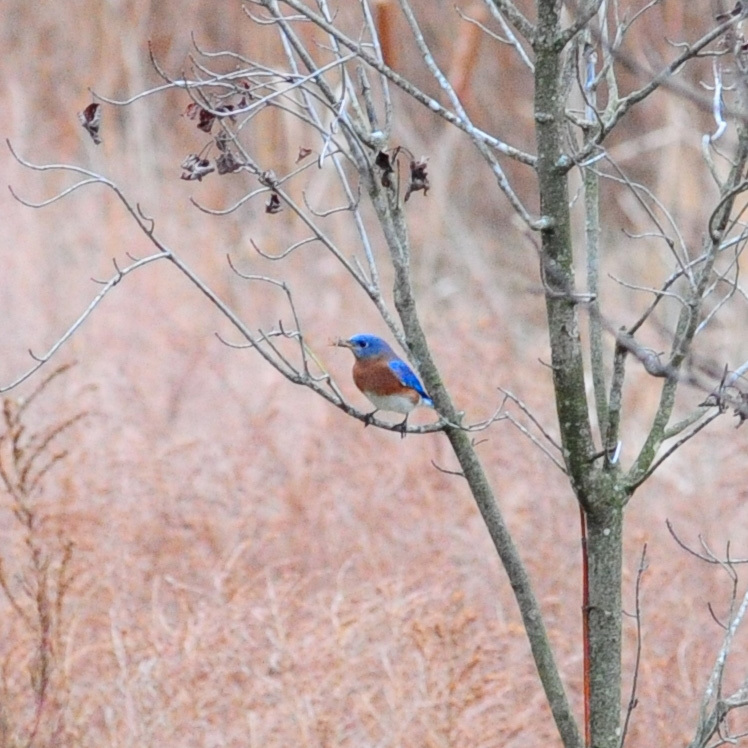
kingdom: Animalia
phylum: Chordata
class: Aves
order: Passeriformes
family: Turdidae
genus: Sialia
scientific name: Sialia sialis
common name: Eastern bluebird
